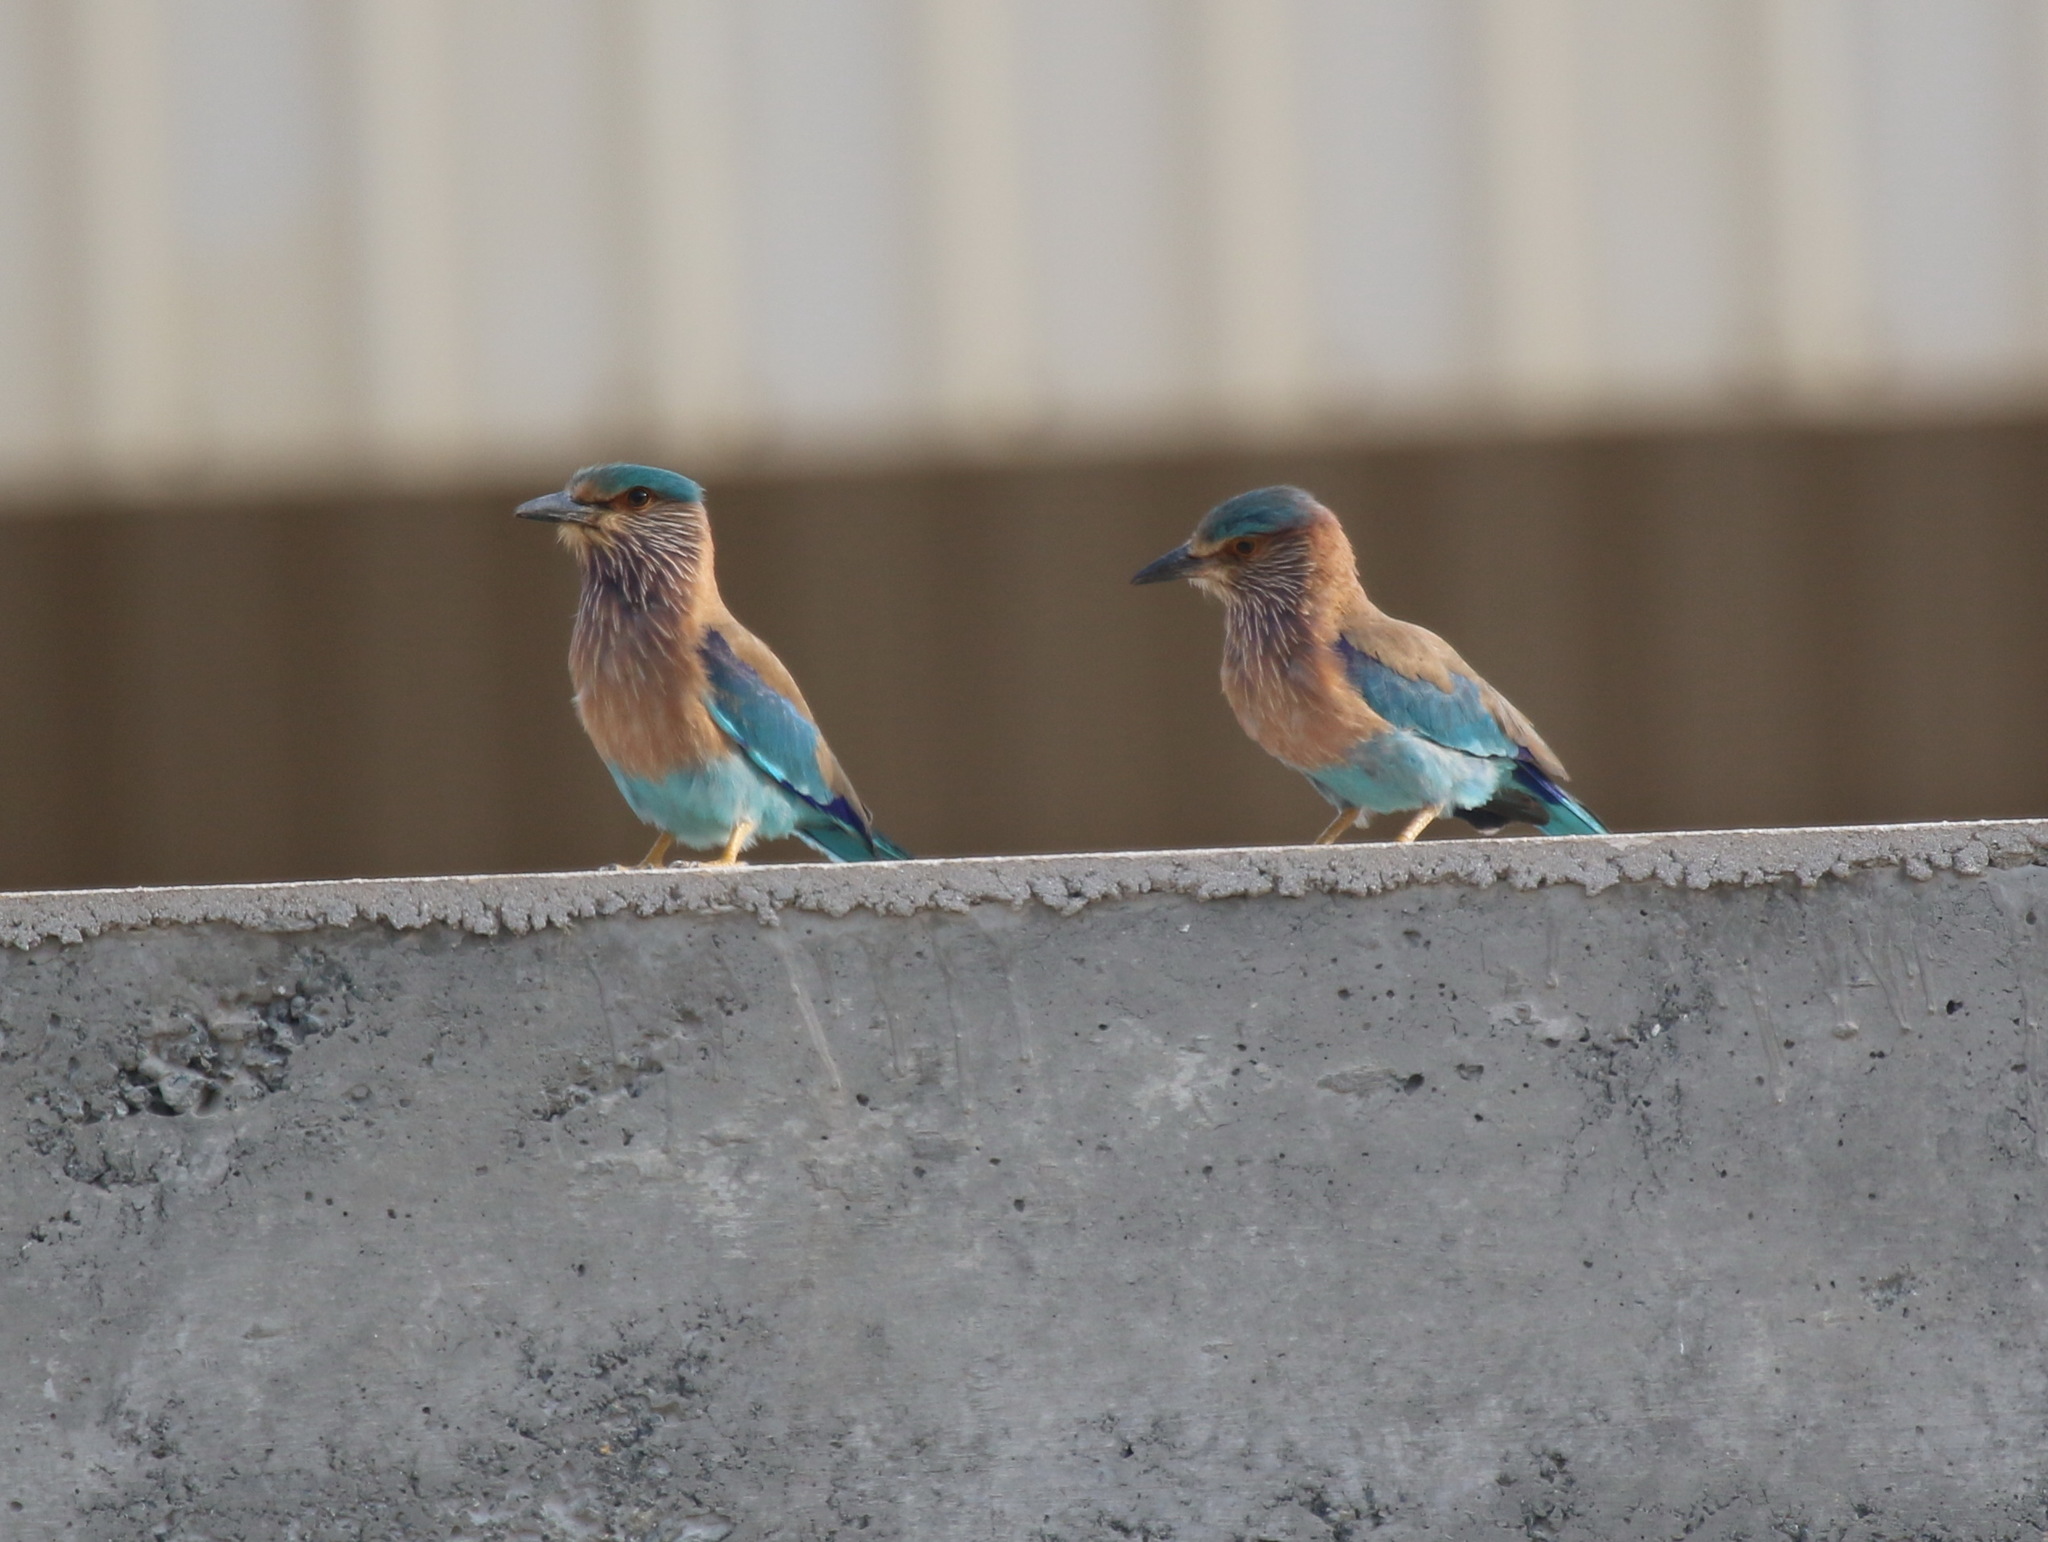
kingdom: Animalia
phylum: Chordata
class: Aves
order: Coraciiformes
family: Coraciidae
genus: Coracias
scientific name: Coracias benghalensis
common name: Indian roller
